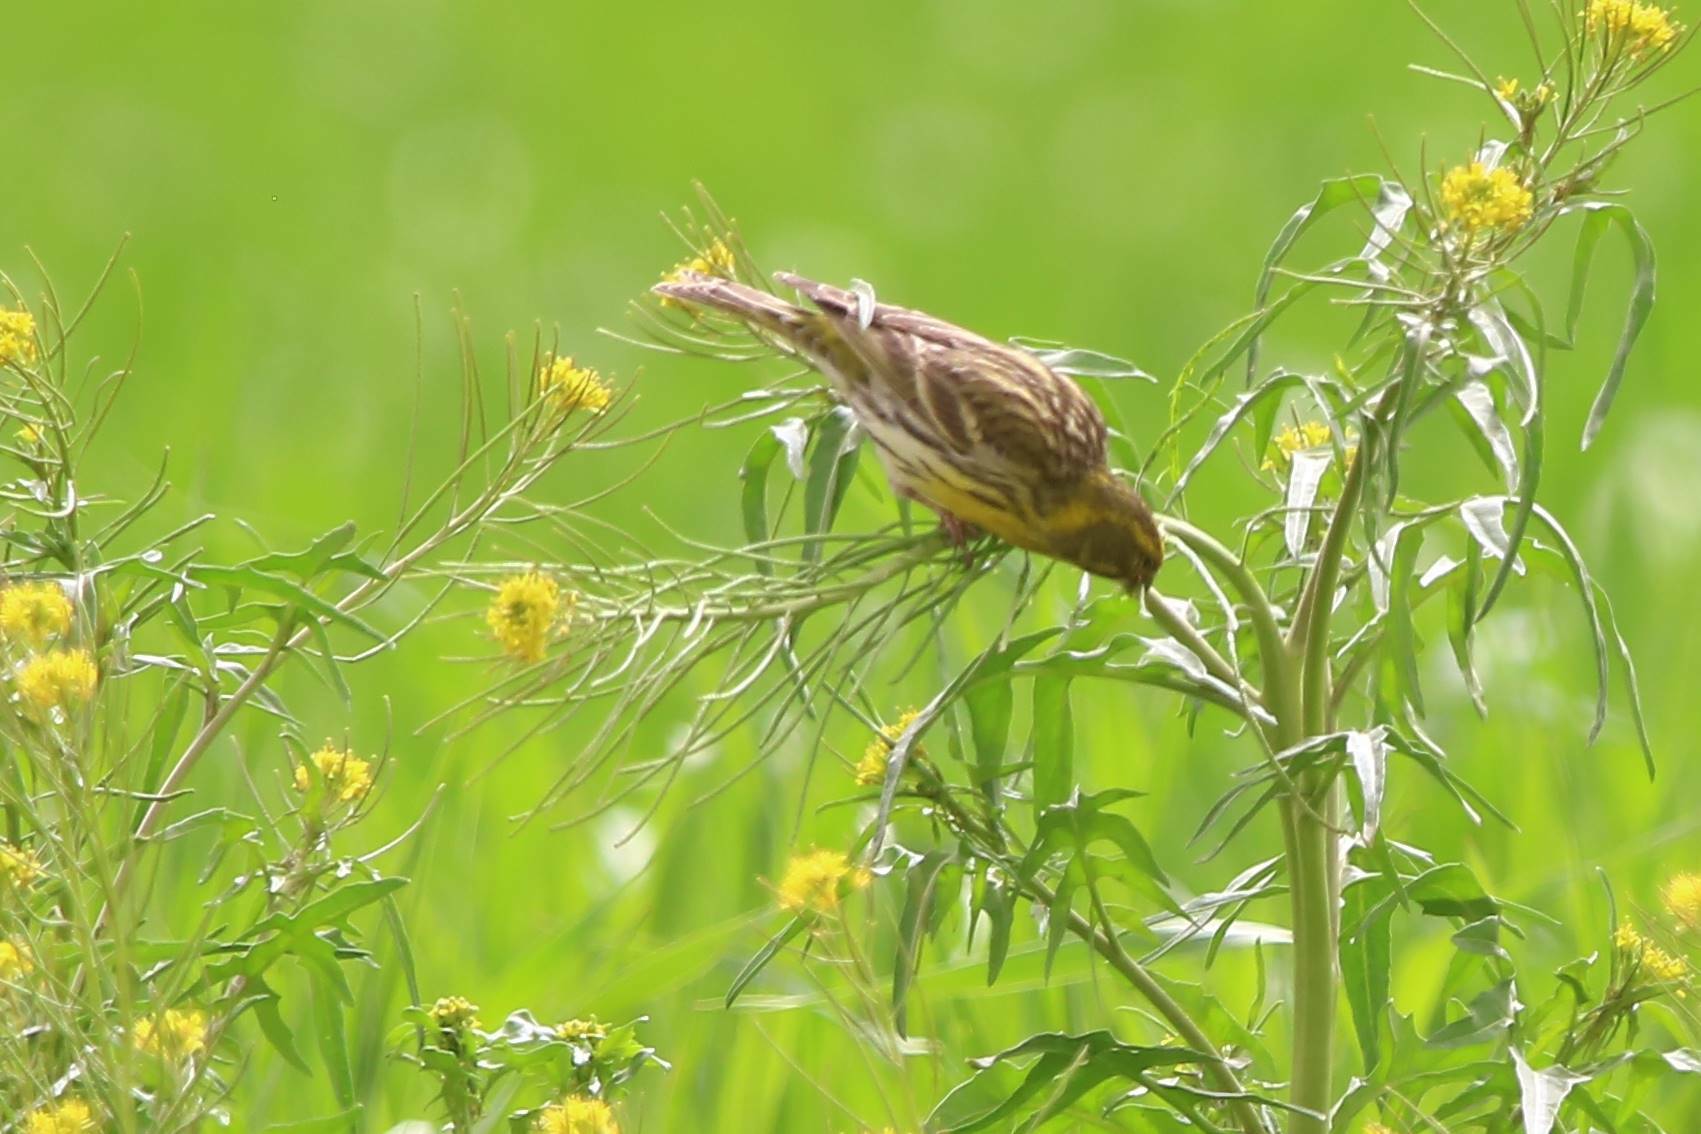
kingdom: Animalia
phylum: Chordata
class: Aves
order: Passeriformes
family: Fringillidae
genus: Serinus
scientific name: Serinus serinus
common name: European serin
